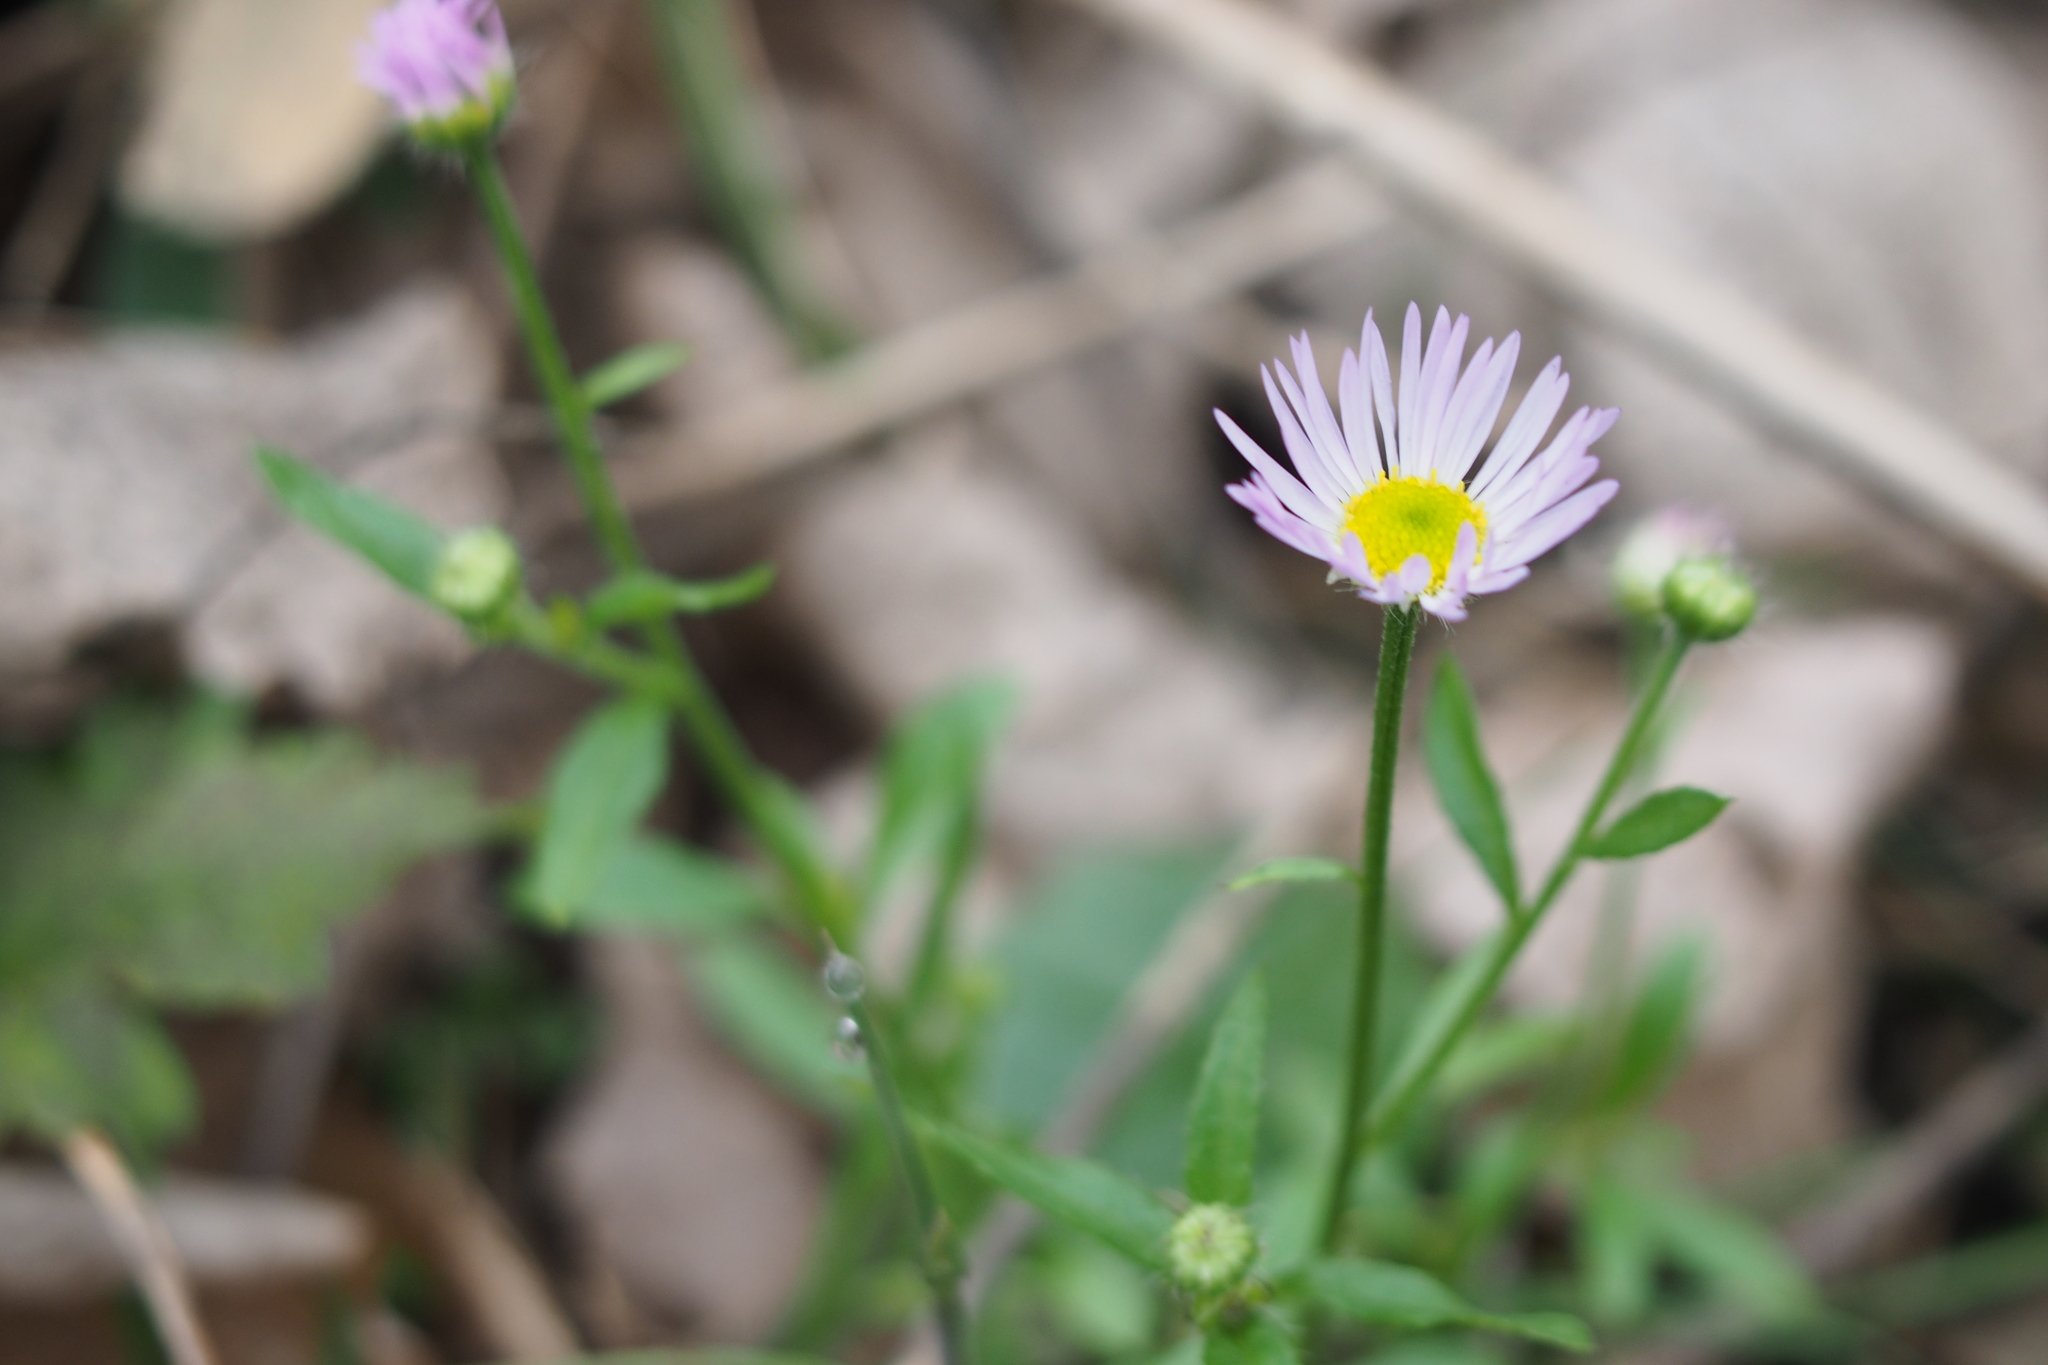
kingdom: Plantae
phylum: Tracheophyta
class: Magnoliopsida
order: Asterales
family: Asteraceae
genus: Erigeron
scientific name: Erigeron annuus
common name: Tall fleabane
